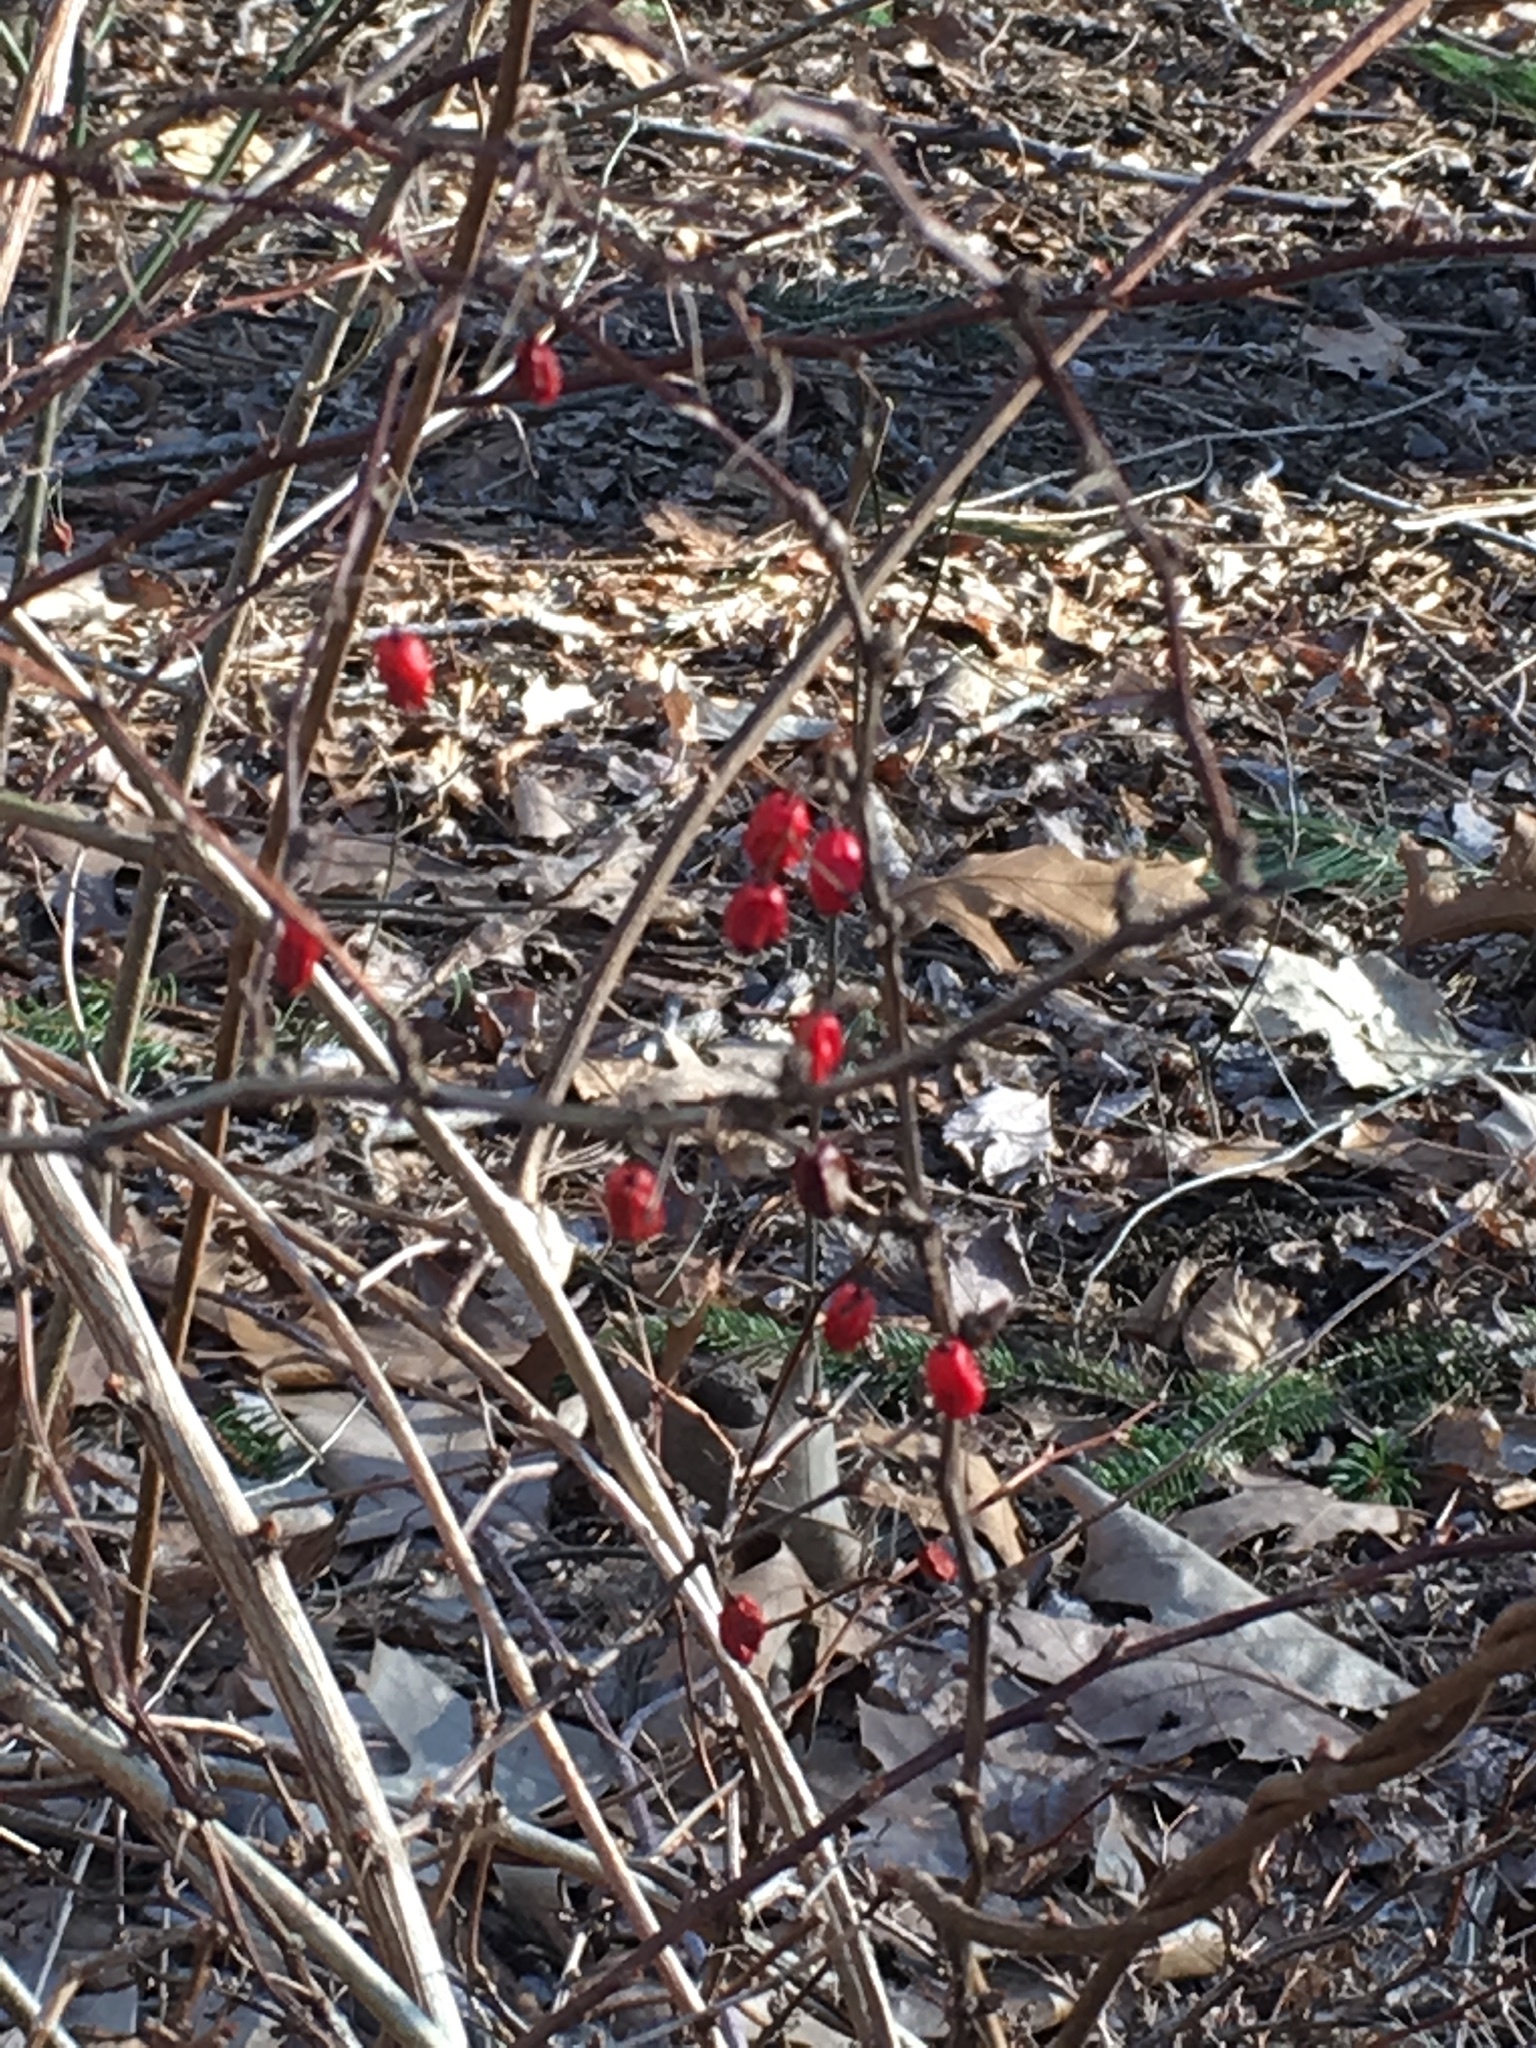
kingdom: Plantae
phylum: Tracheophyta
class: Magnoliopsida
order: Ranunculales
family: Berberidaceae
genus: Berberis
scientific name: Berberis thunbergii
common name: Japanese barberry
